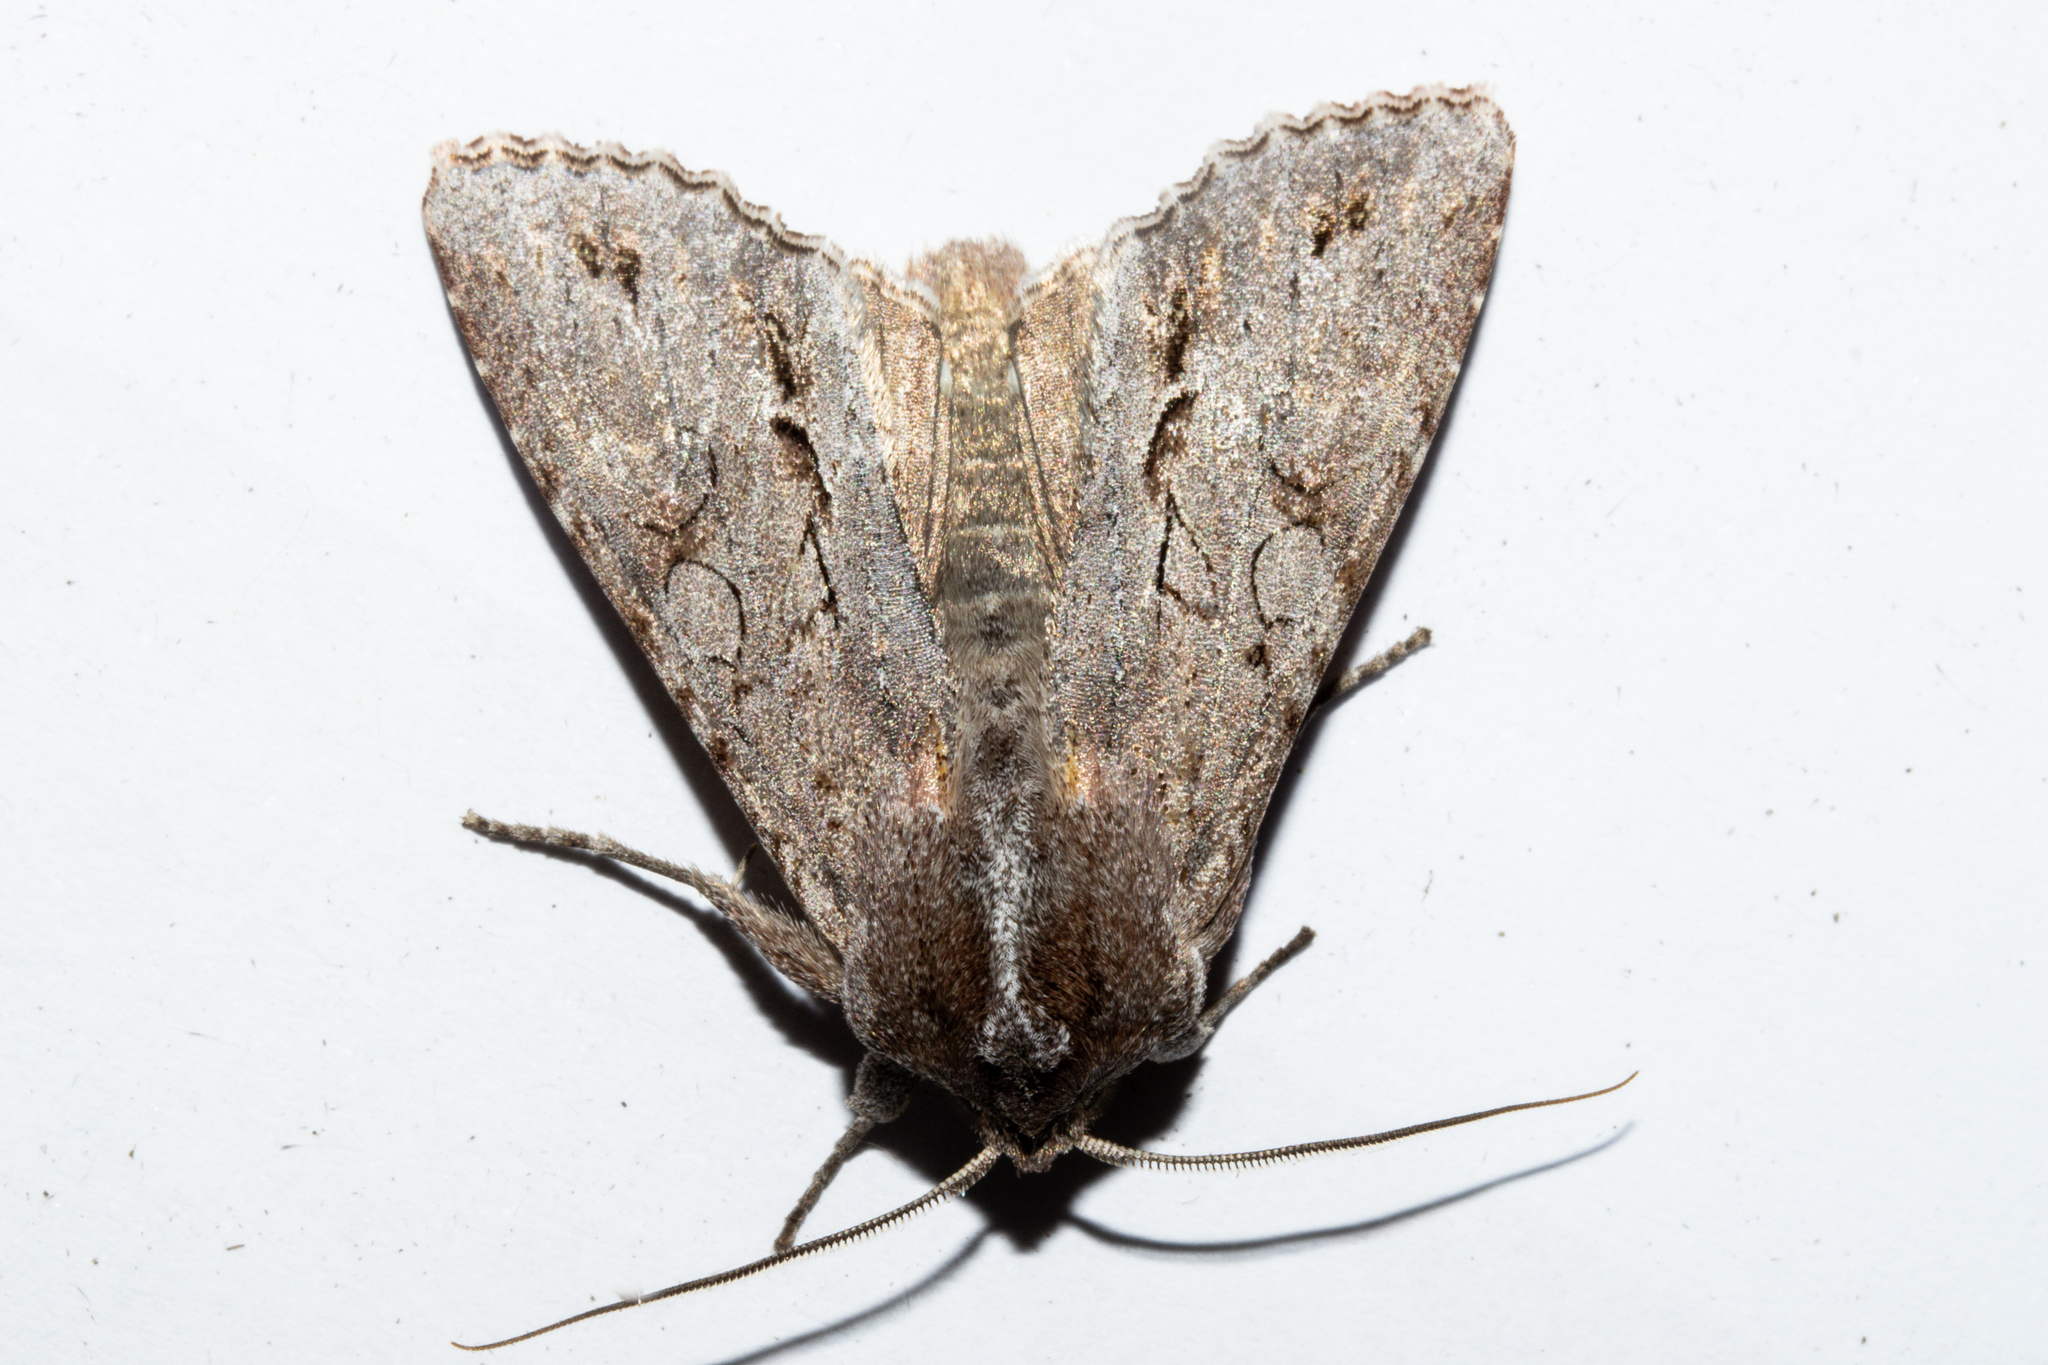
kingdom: Animalia
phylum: Arthropoda
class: Insecta
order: Lepidoptera
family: Noctuidae
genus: Ichneutica
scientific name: Ichneutica
